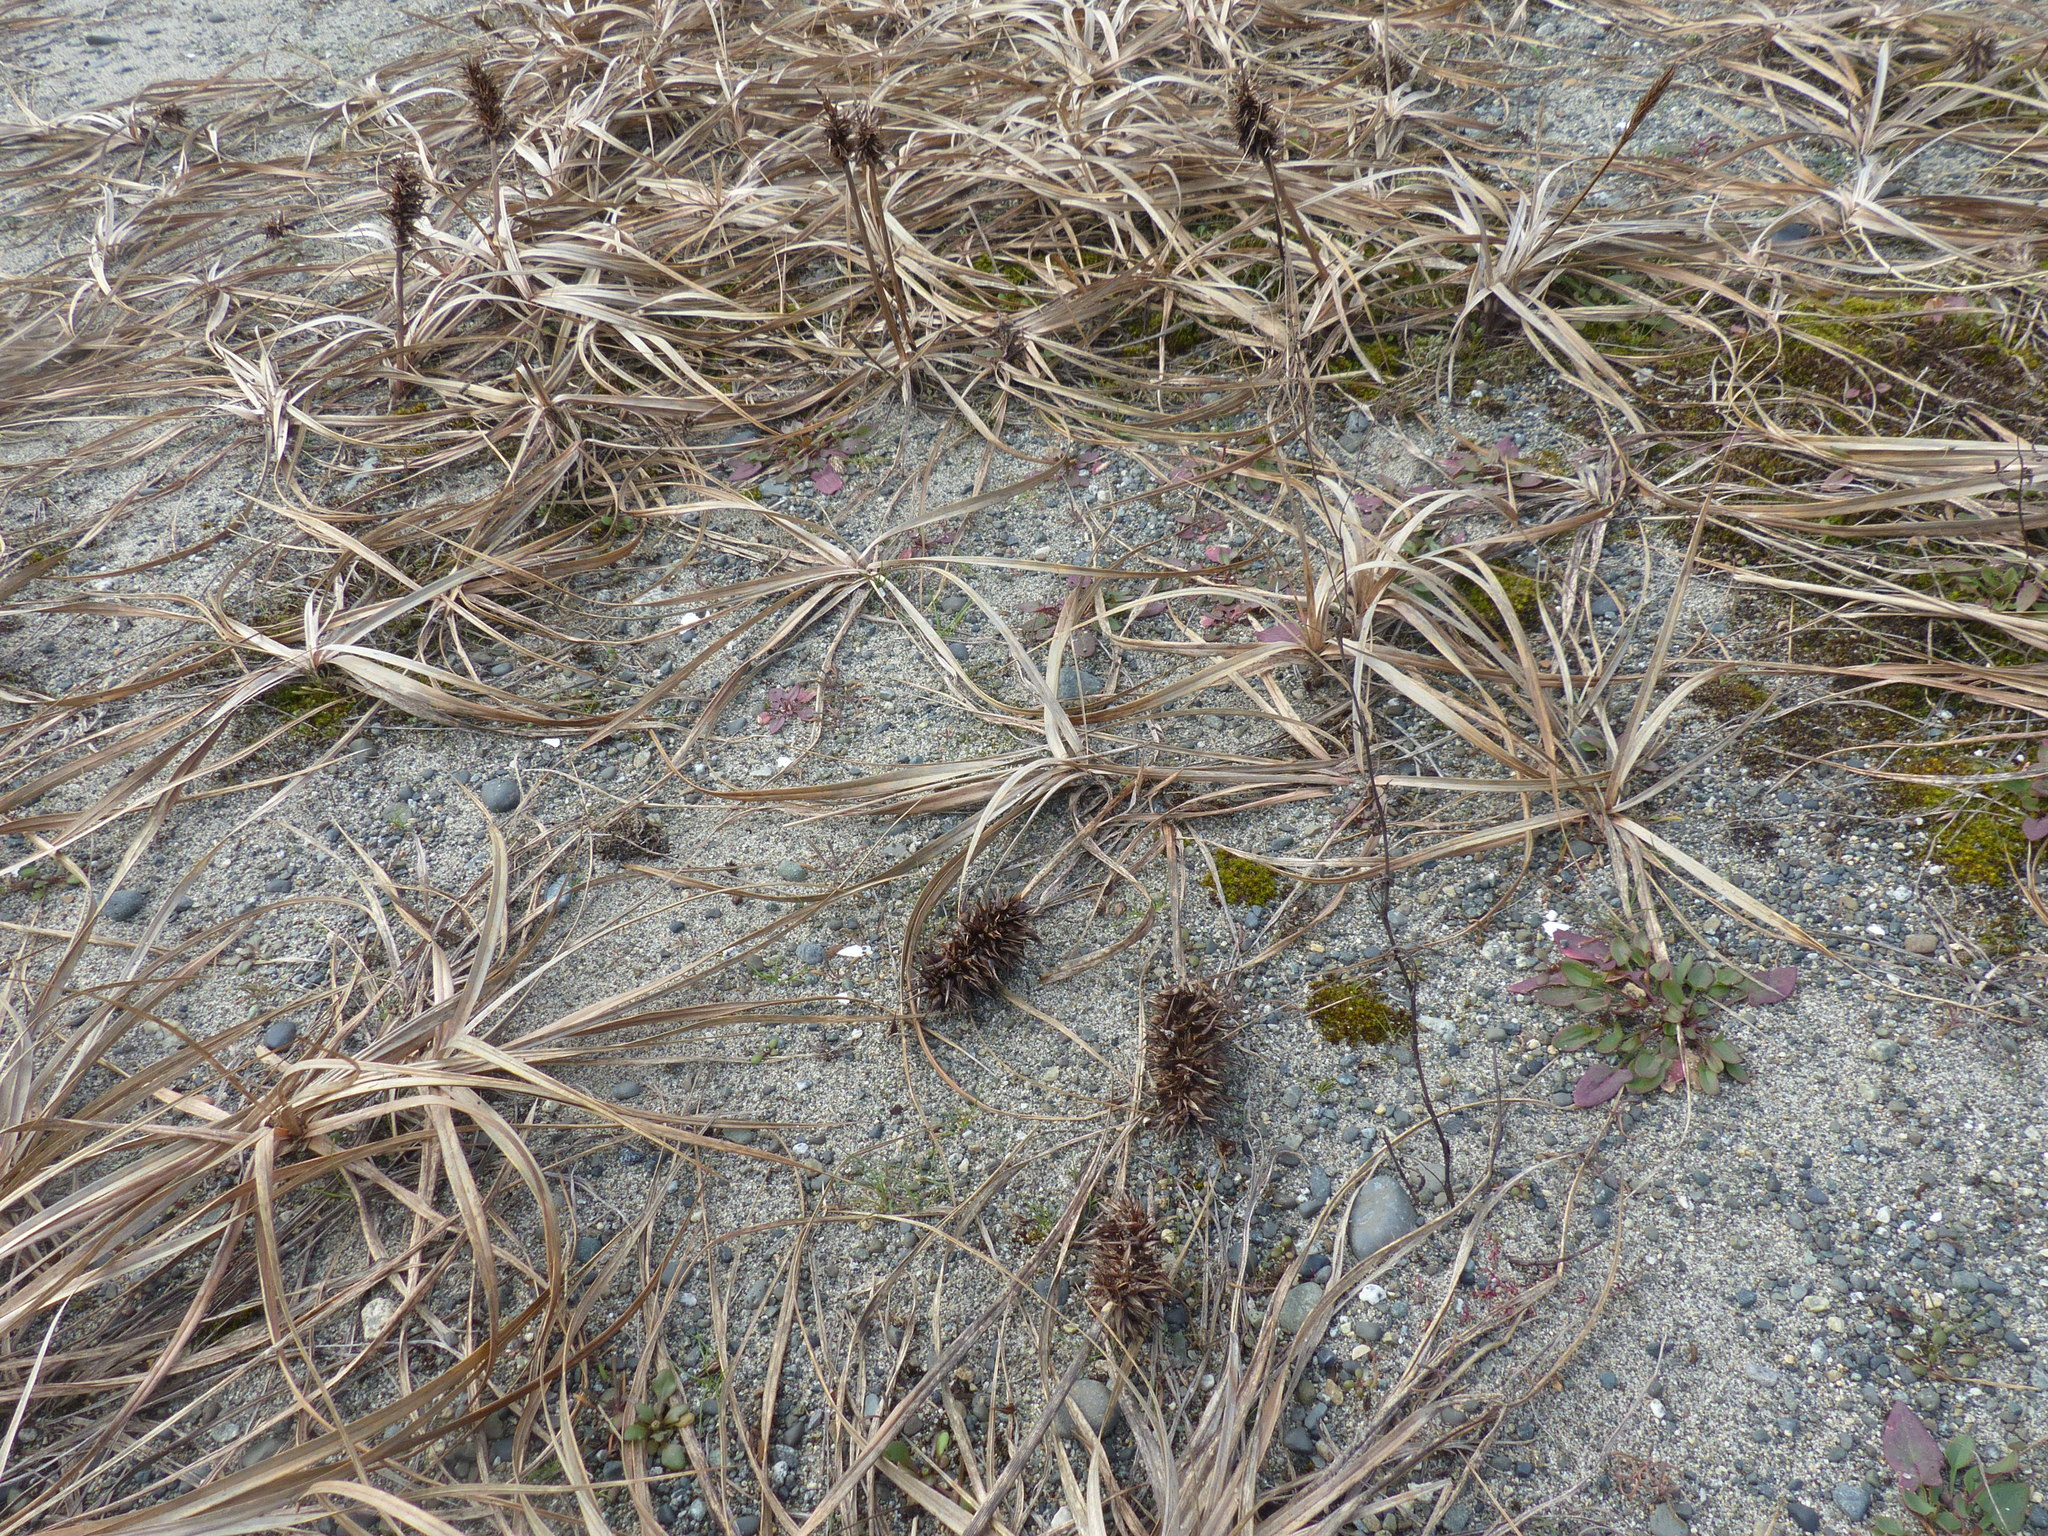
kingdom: Plantae
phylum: Tracheophyta
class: Liliopsida
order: Poales
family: Cyperaceae
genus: Carex
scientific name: Carex macrocephala
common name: Large-head sedge
